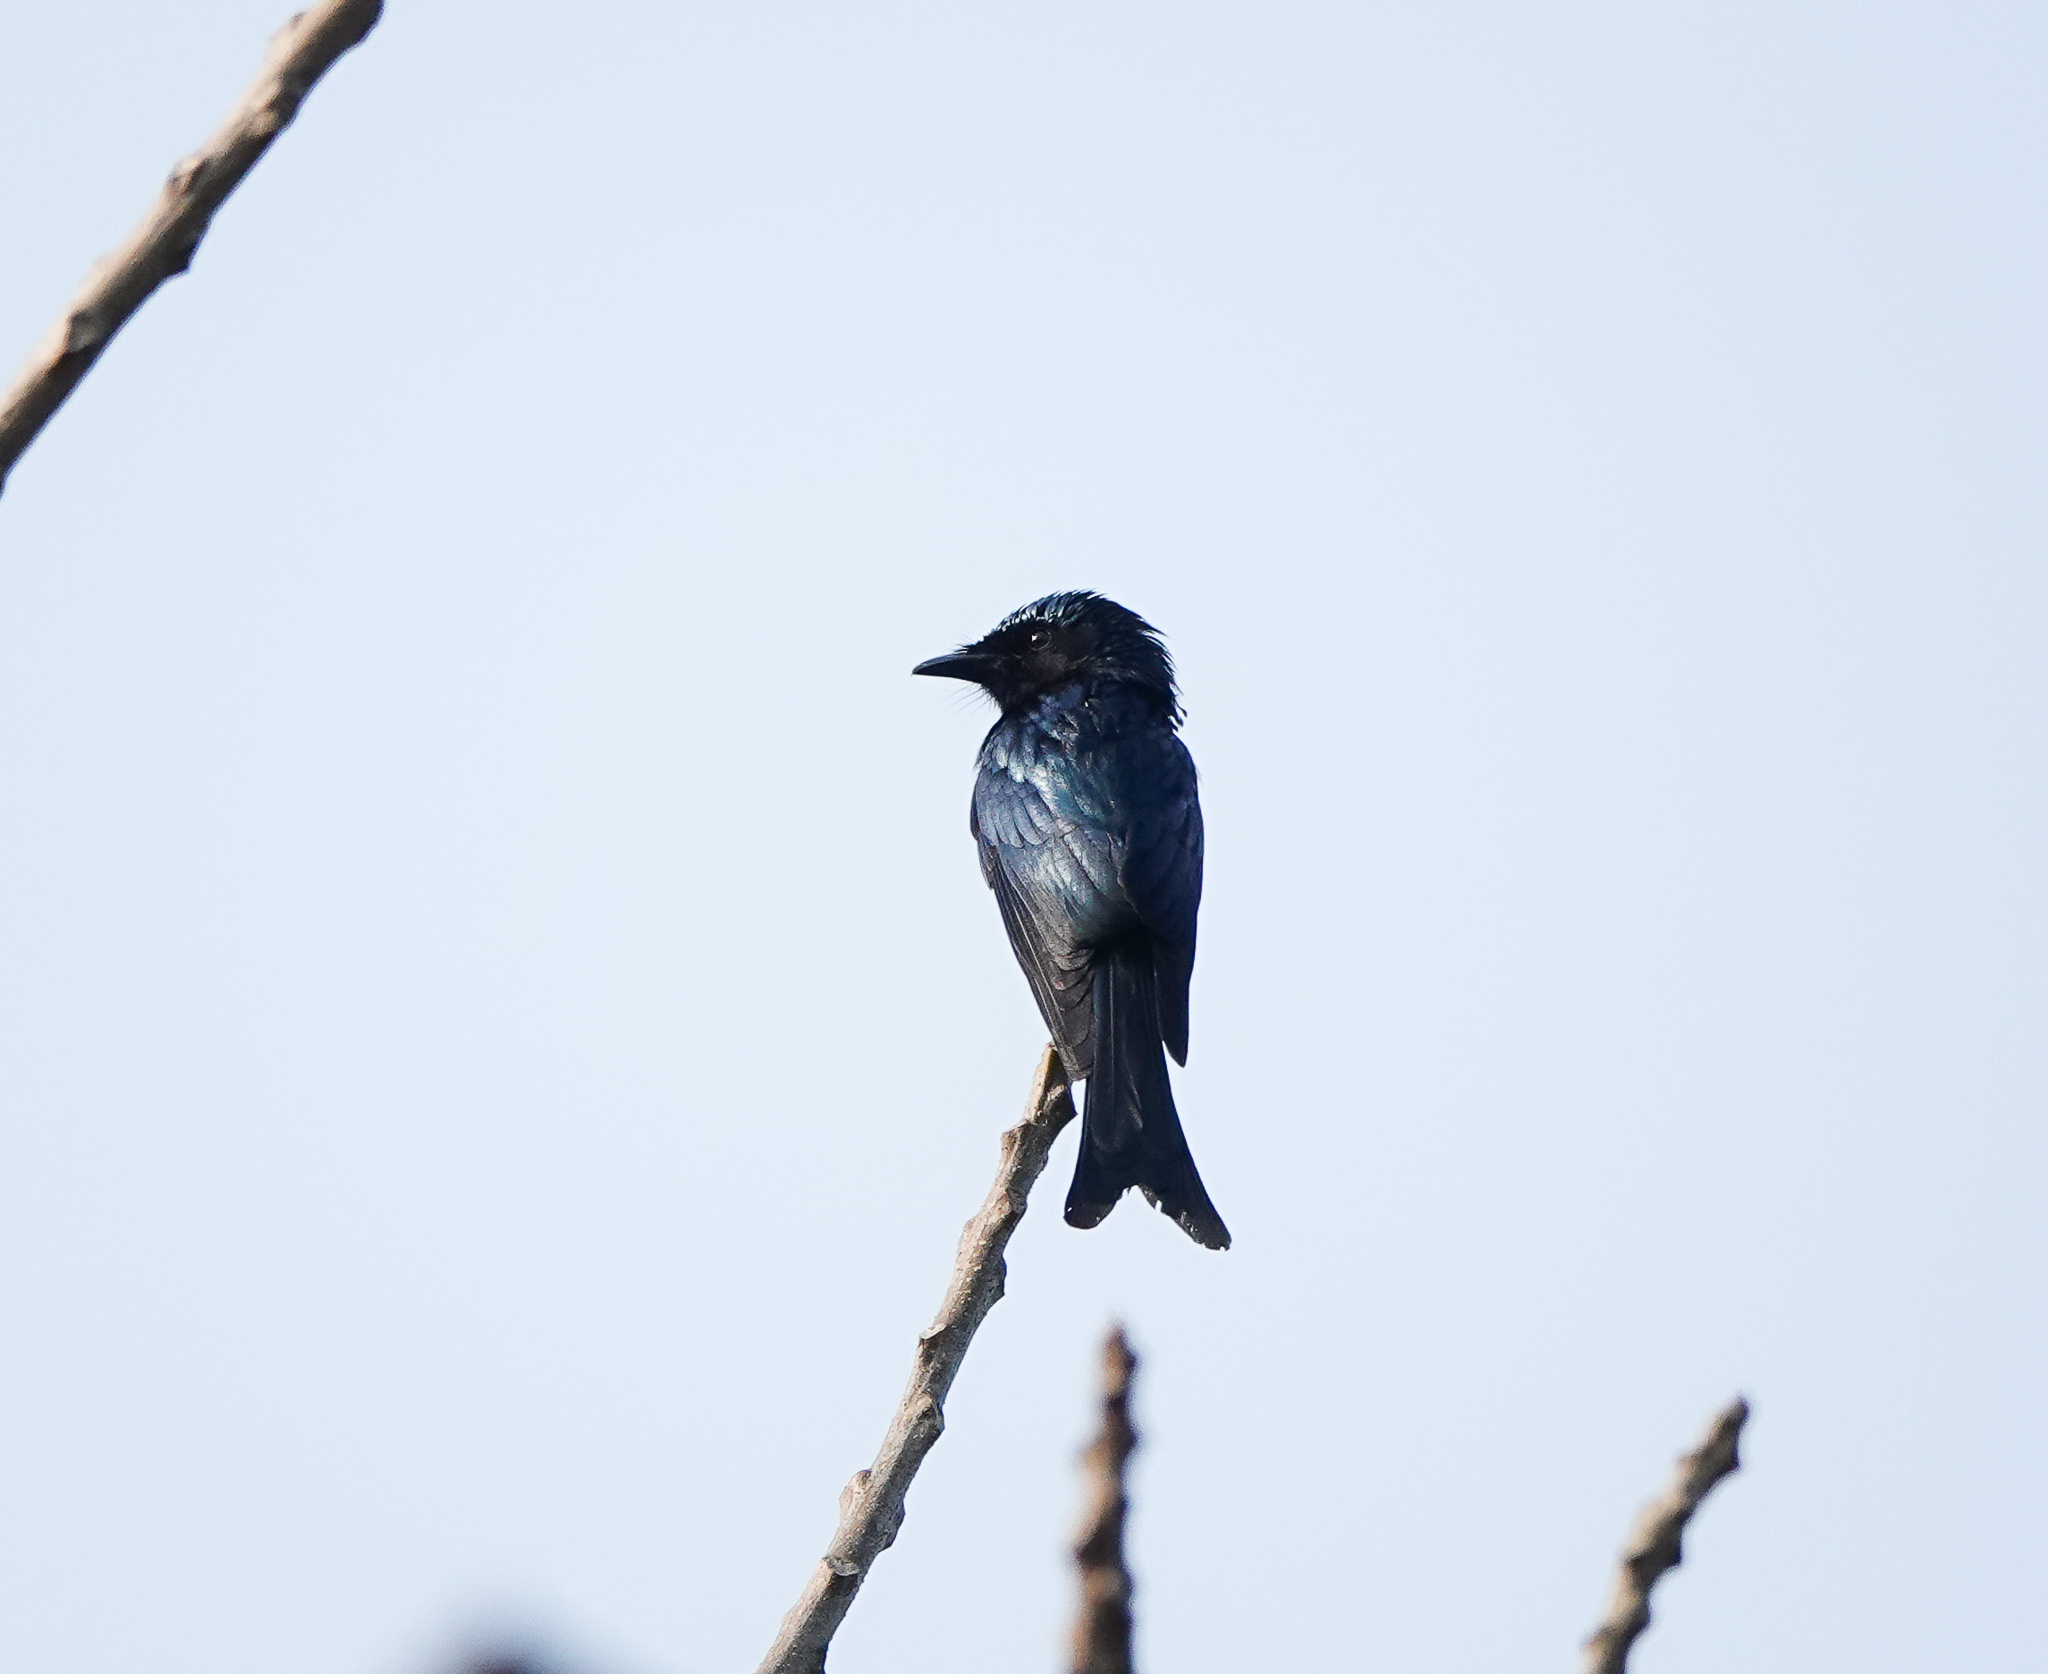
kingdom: Animalia
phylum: Chordata
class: Aves
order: Passeriformes
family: Dicruridae
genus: Dicrurus
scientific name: Dicrurus aeneus
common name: Bronzed drongo
